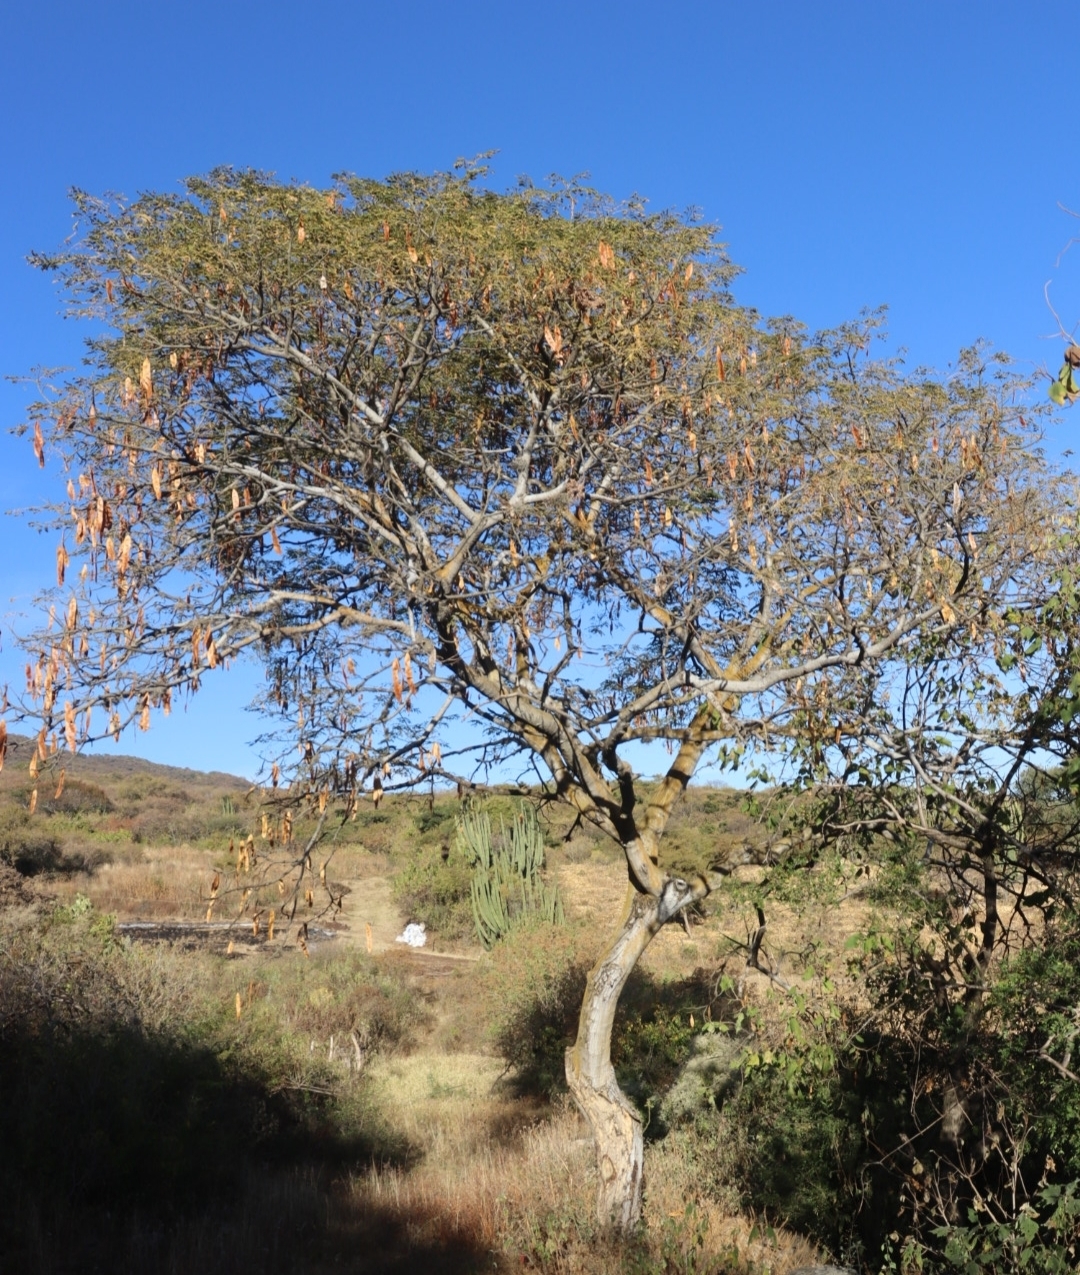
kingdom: Plantae
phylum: Tracheophyta
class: Magnoliopsida
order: Fabales
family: Fabaceae
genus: Lysiloma
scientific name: Lysiloma divaricatum
